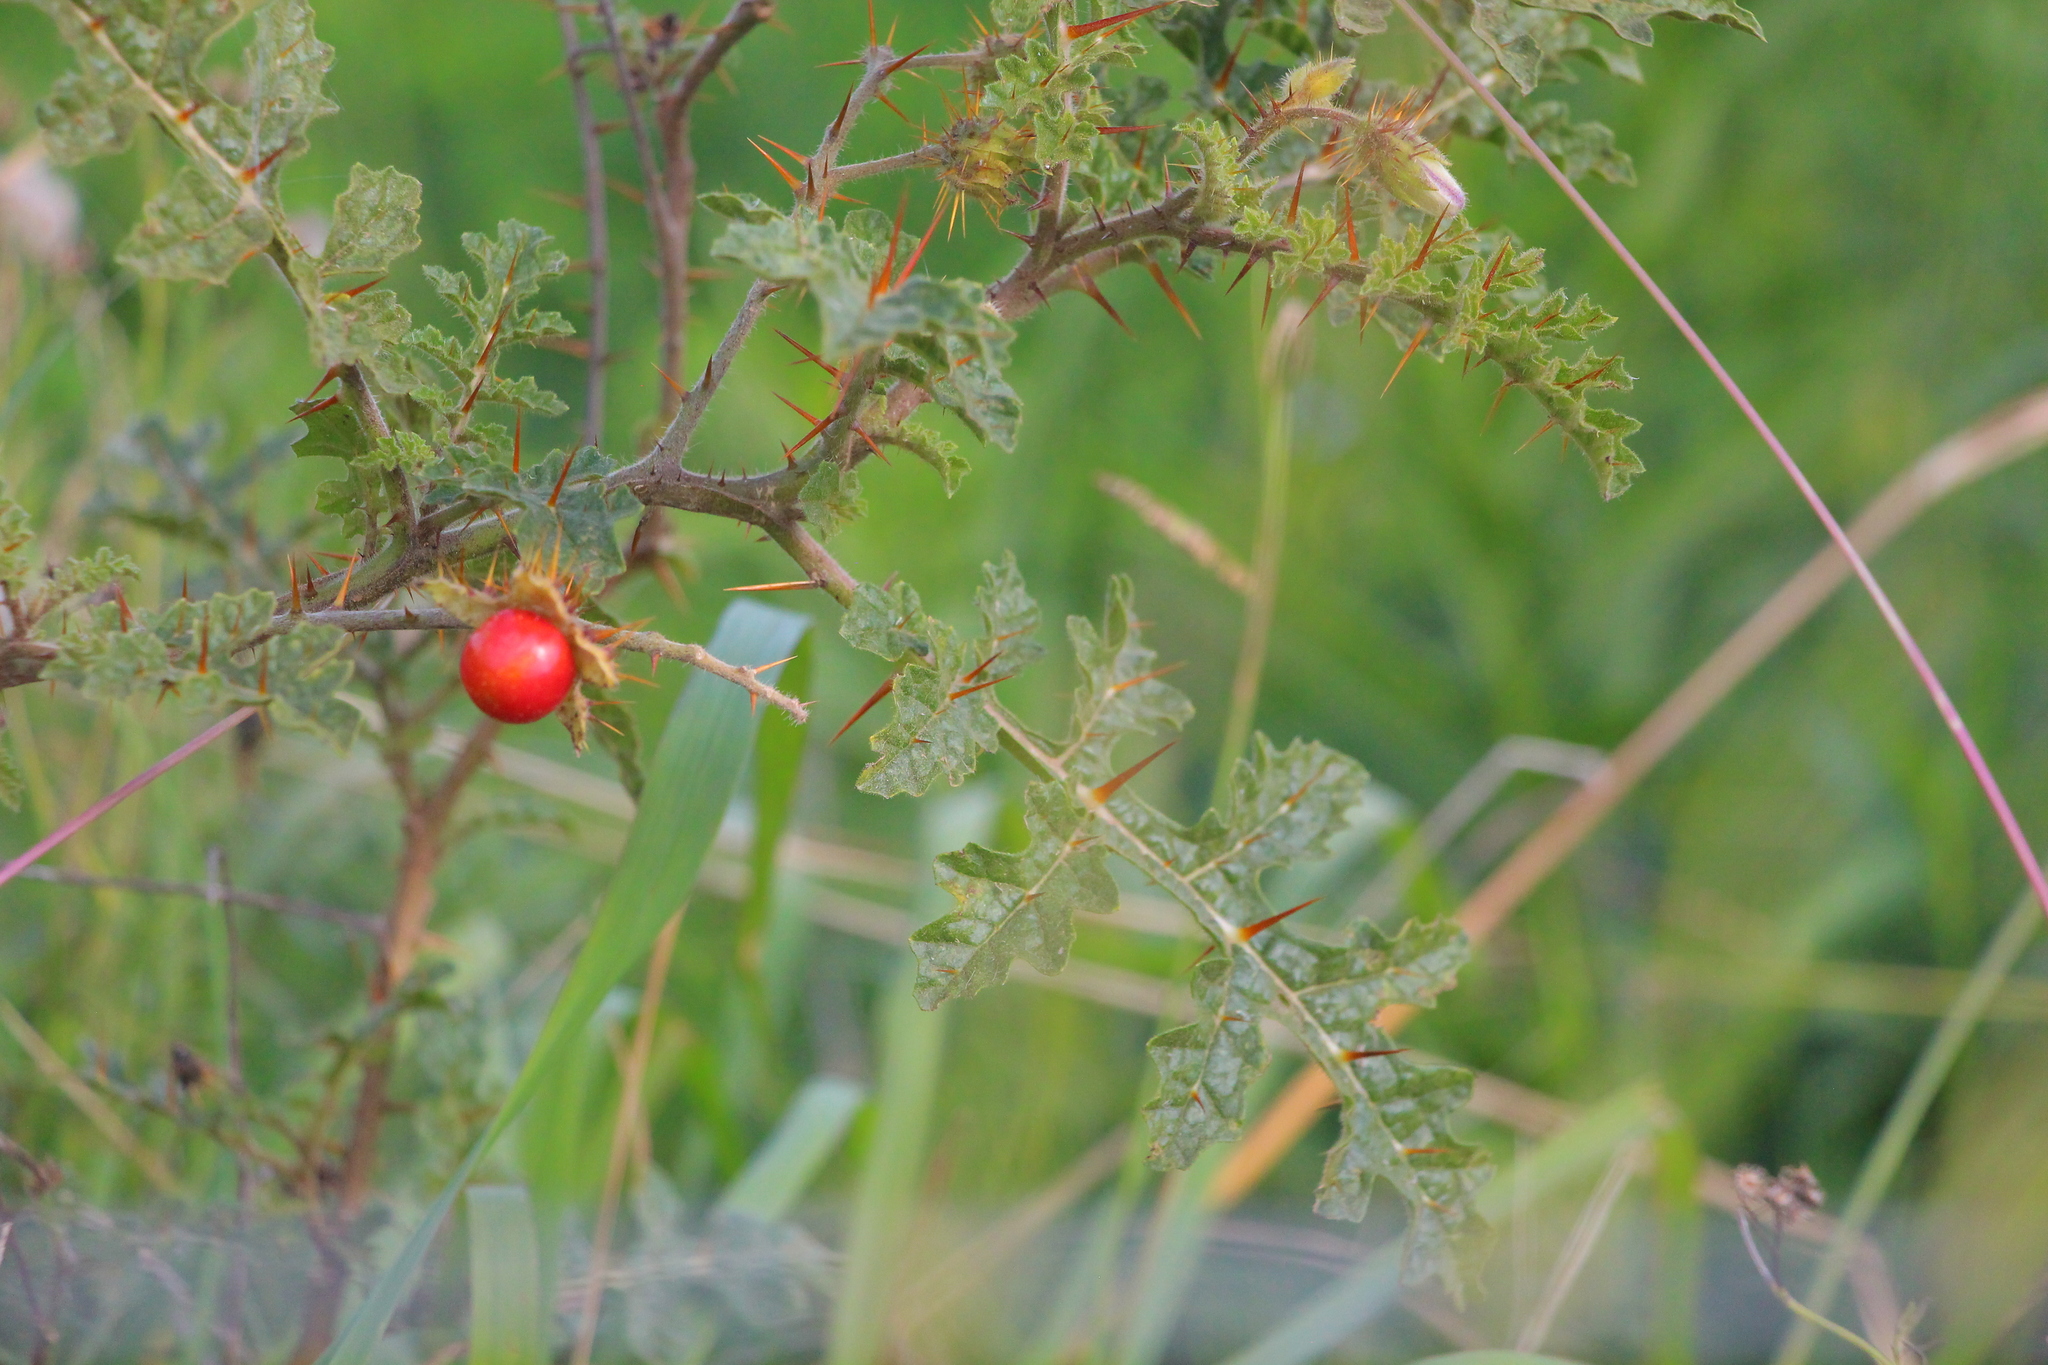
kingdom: Plantae
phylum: Tracheophyta
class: Magnoliopsida
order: Solanales
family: Solanaceae
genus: Solanum
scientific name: Solanum sisymbriifolium
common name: Red buffalo-bur
